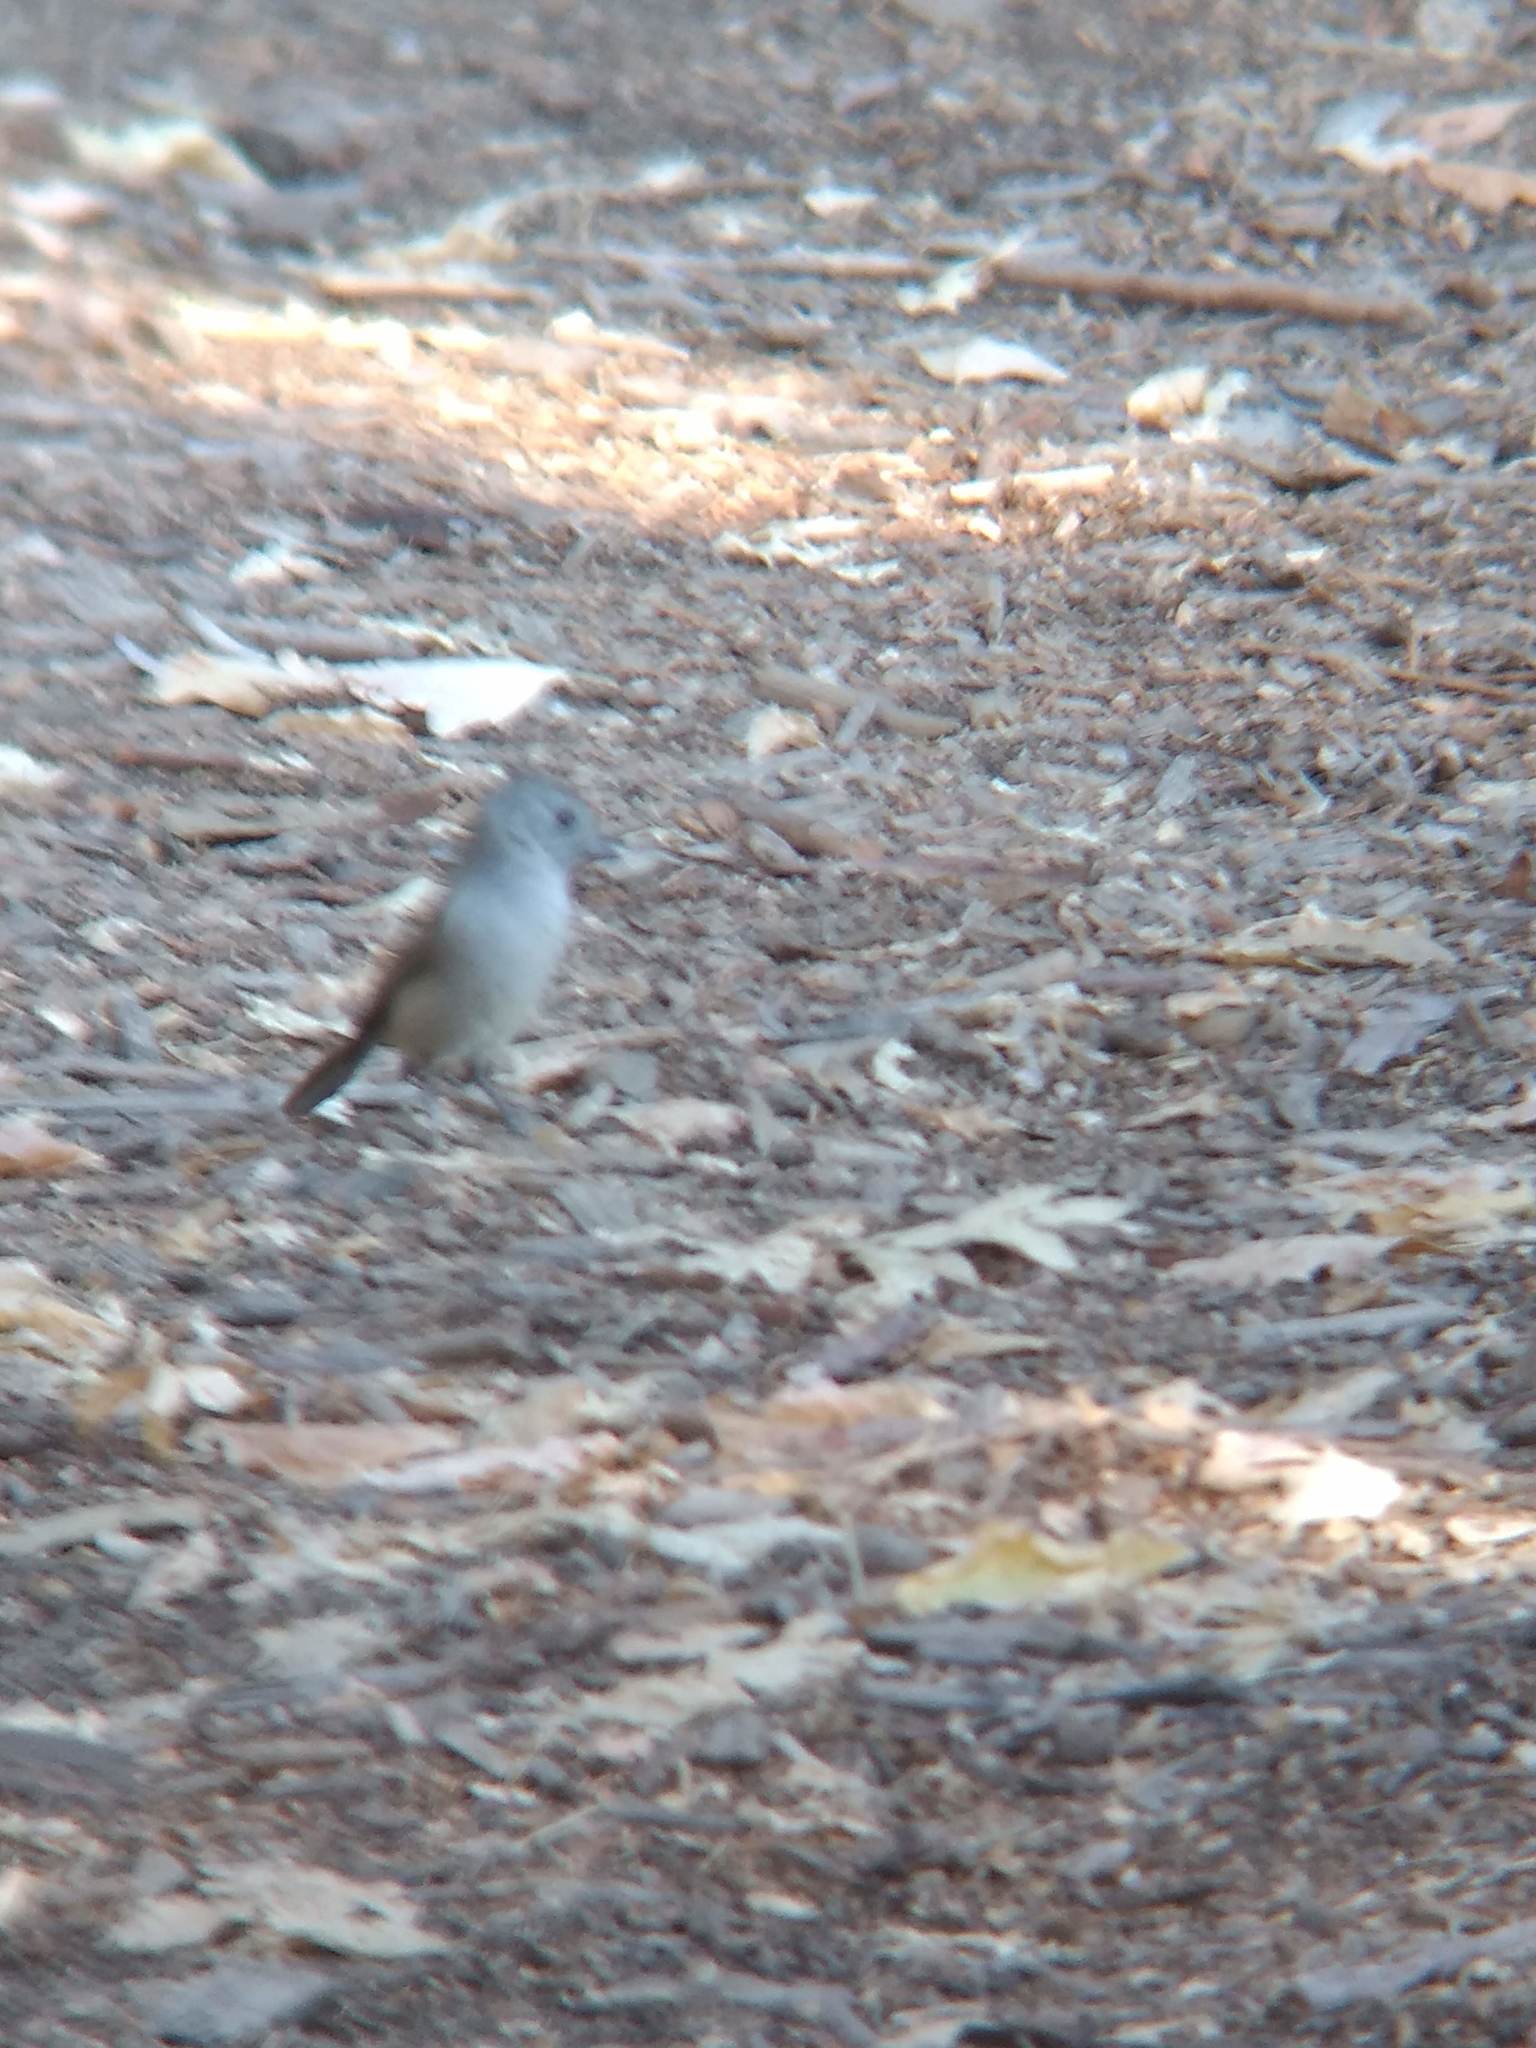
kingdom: Animalia
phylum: Chordata
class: Aves
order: Passeriformes
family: Paridae
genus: Baeolophus
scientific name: Baeolophus inornatus
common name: Oak titmouse
